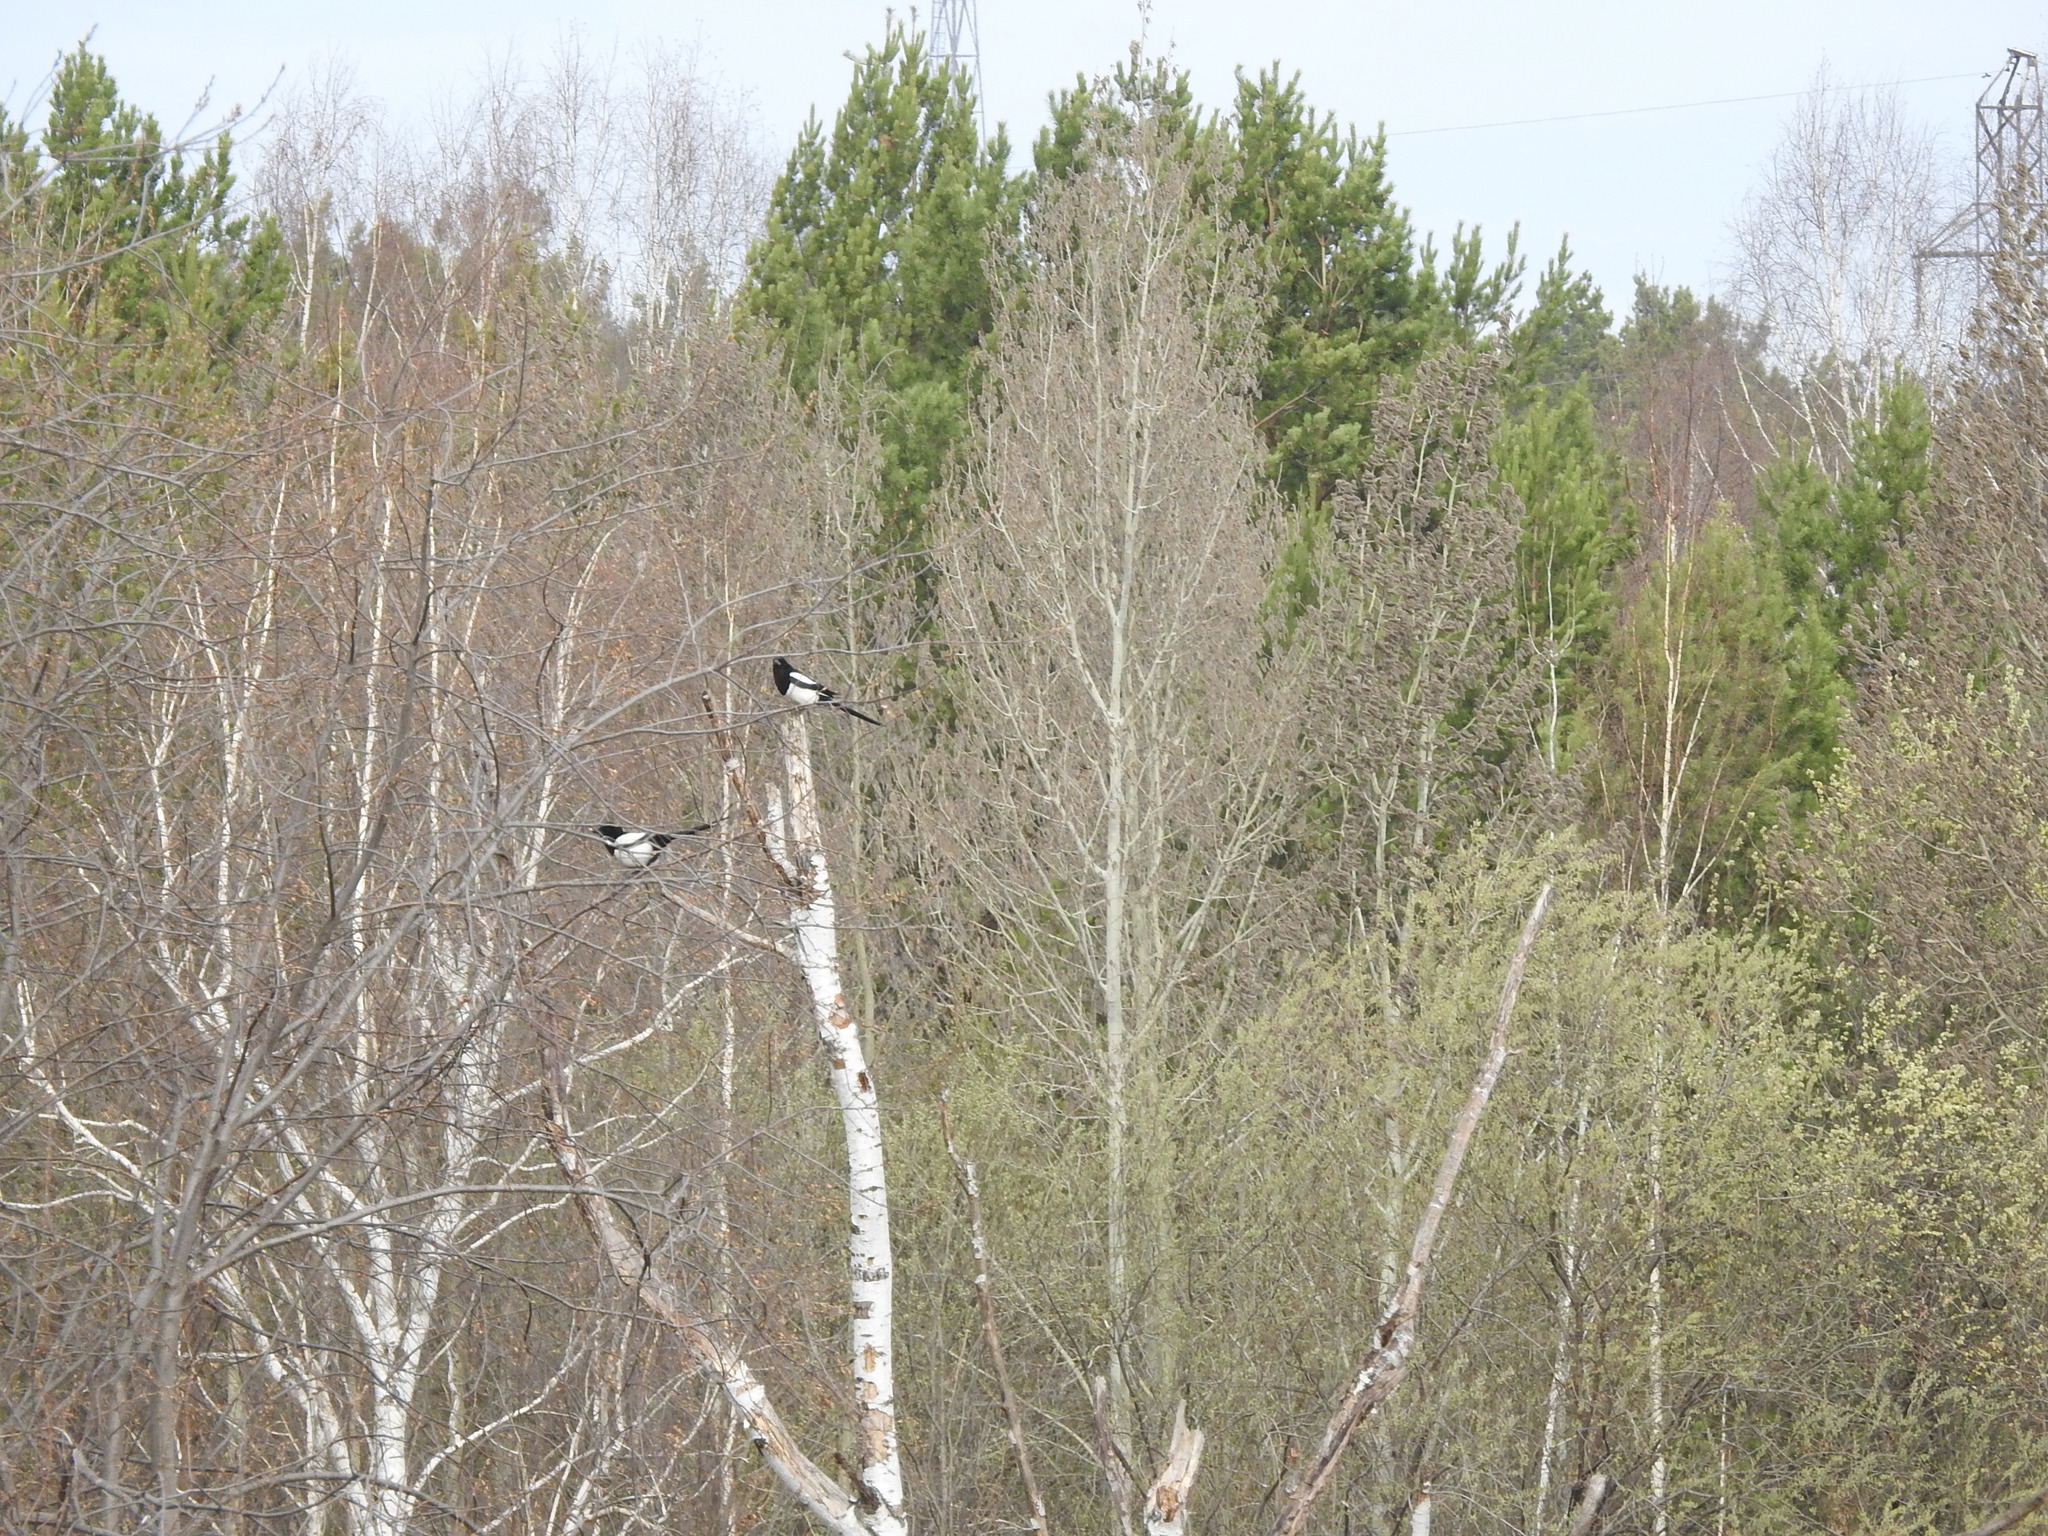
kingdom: Animalia
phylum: Chordata
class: Aves
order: Passeriformes
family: Corvidae
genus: Pica
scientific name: Pica pica
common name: Eurasian magpie
